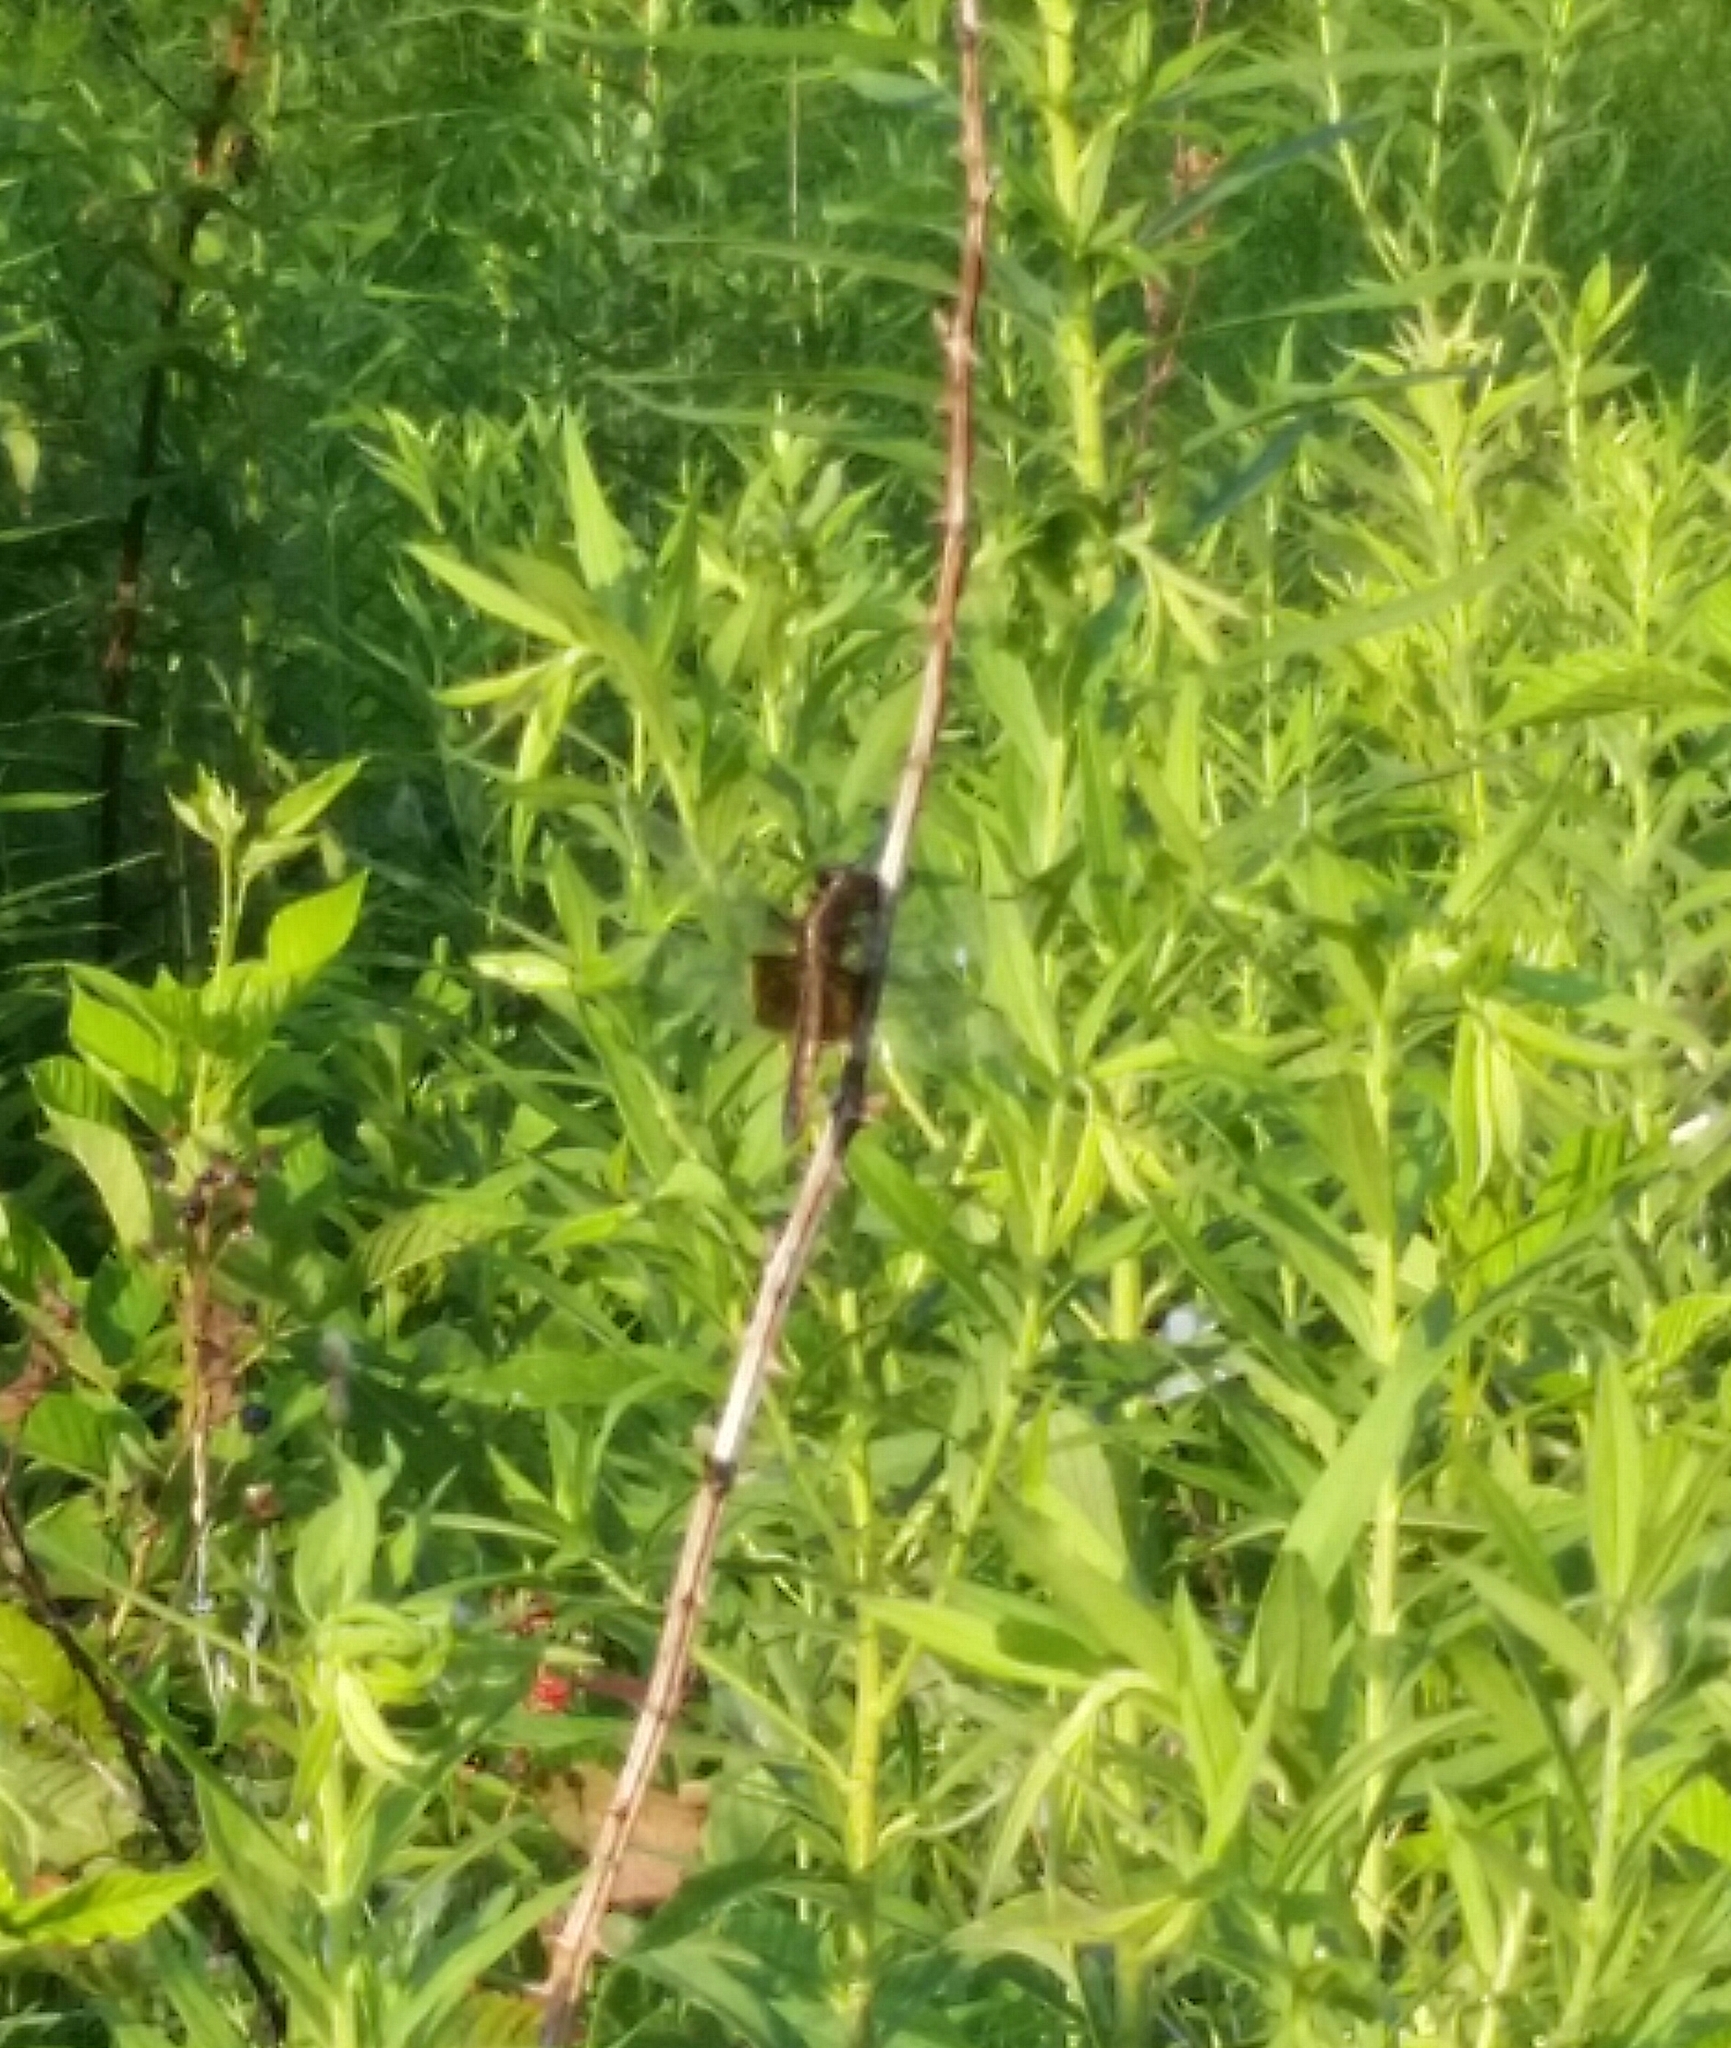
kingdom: Animalia
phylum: Arthropoda
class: Insecta
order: Odonata
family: Libellulidae
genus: Libellula
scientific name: Libellula luctuosa
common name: Widow skimmer
